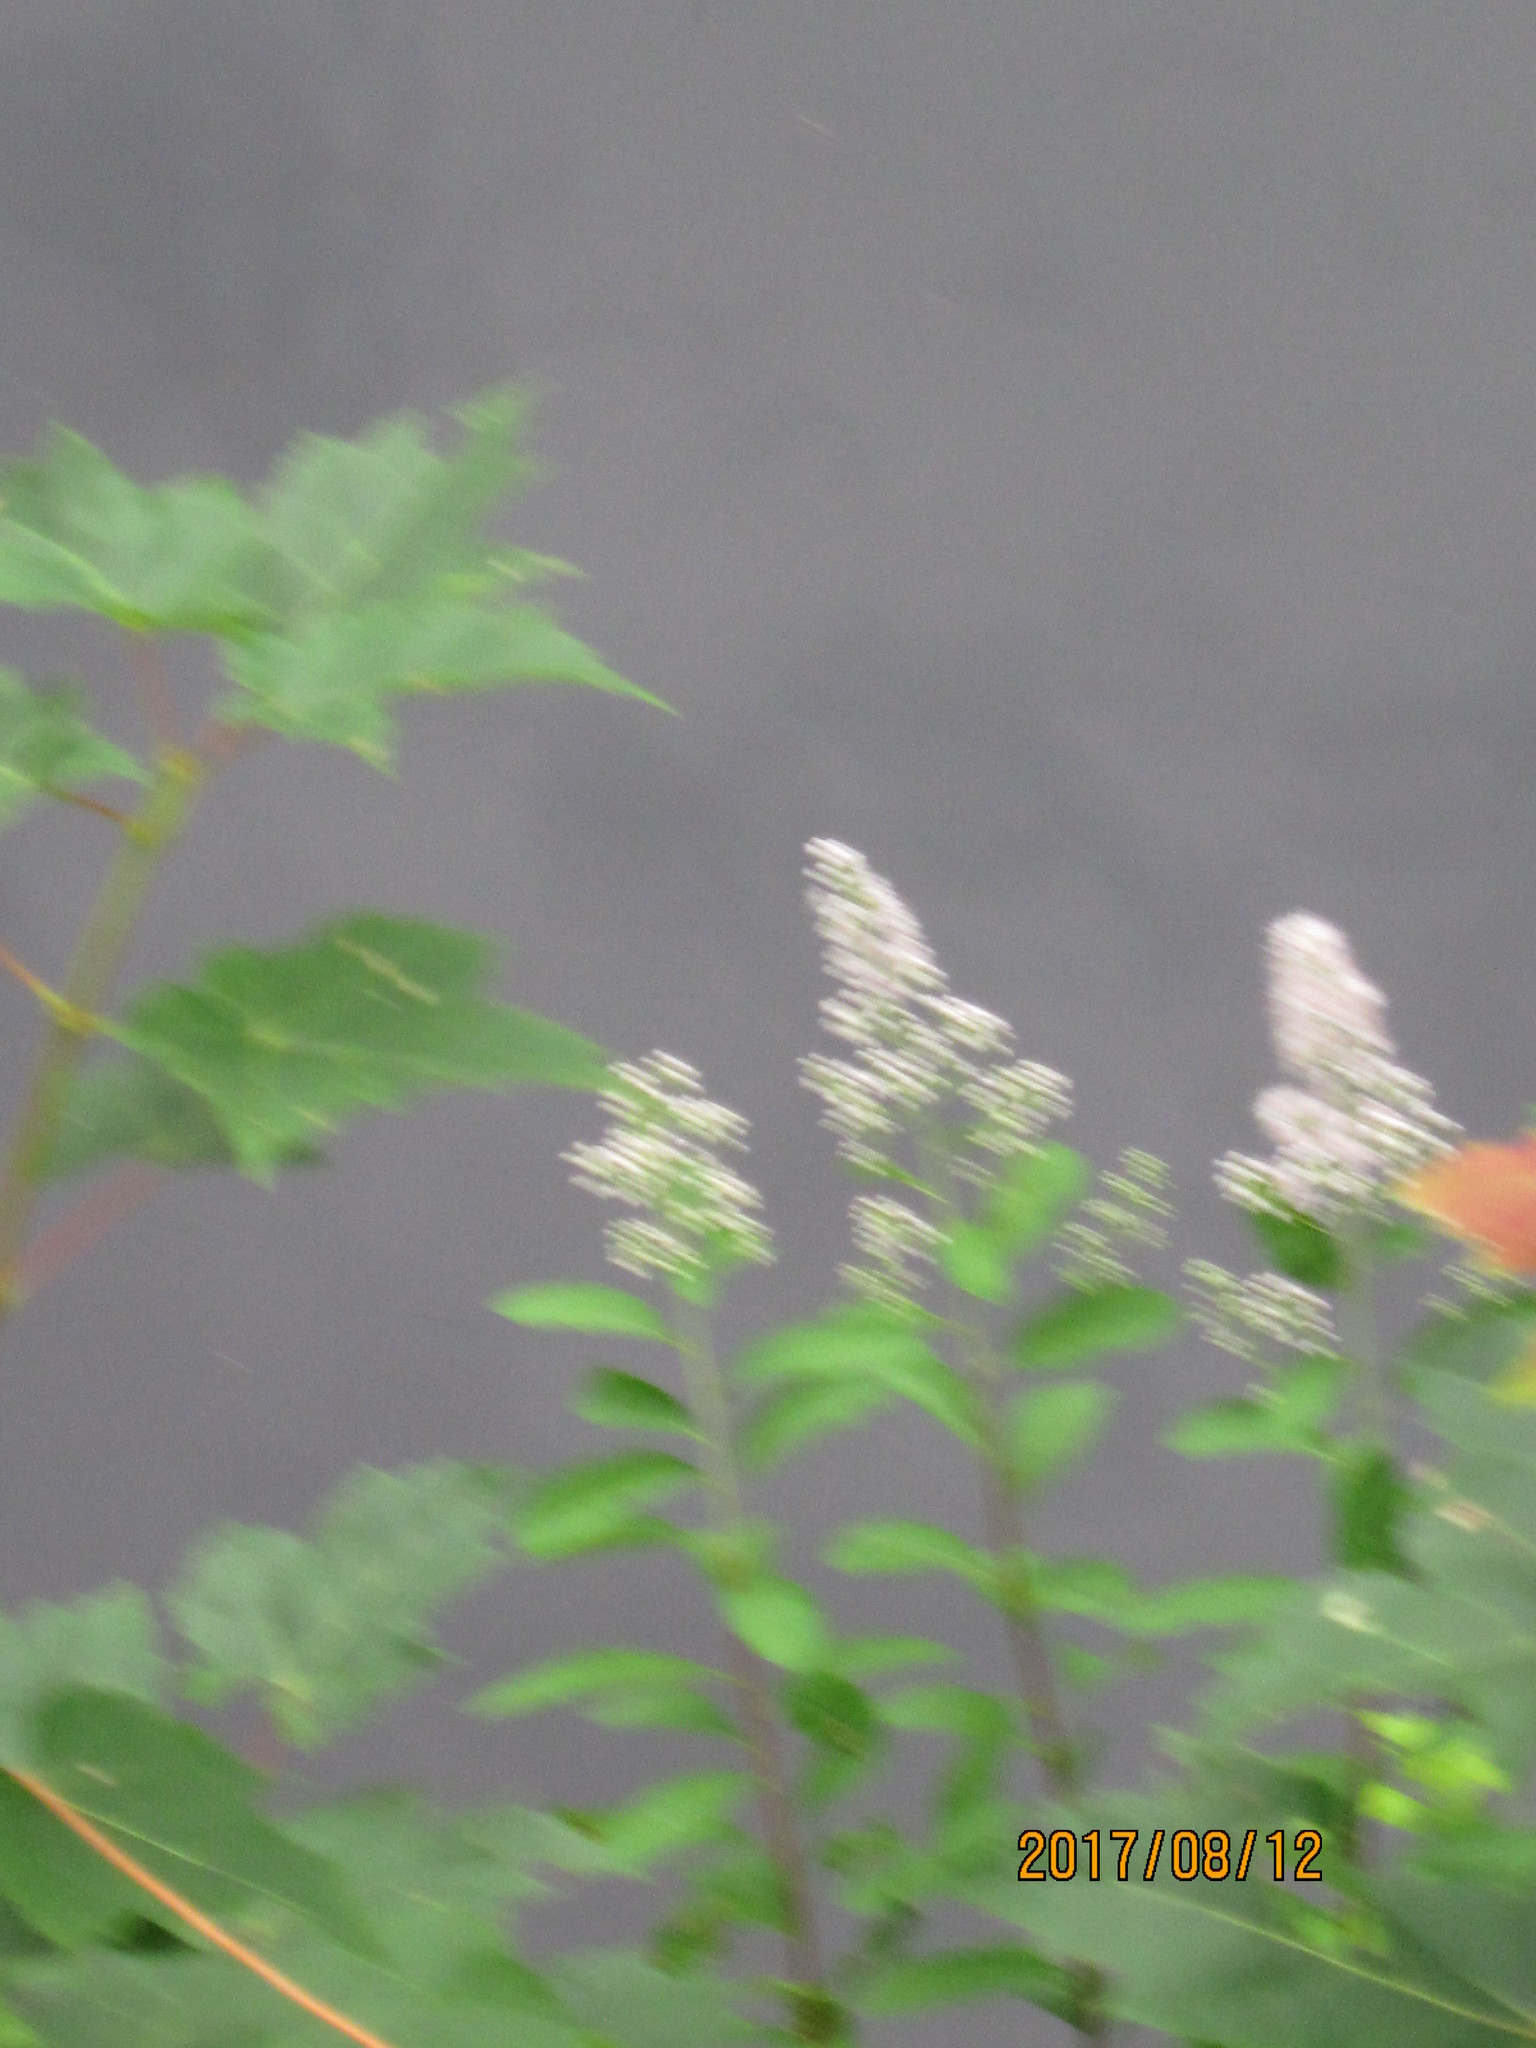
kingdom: Plantae
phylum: Tracheophyta
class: Magnoliopsida
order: Rosales
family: Rosaceae
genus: Spiraea
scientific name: Spiraea alba
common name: Pale bridewort
